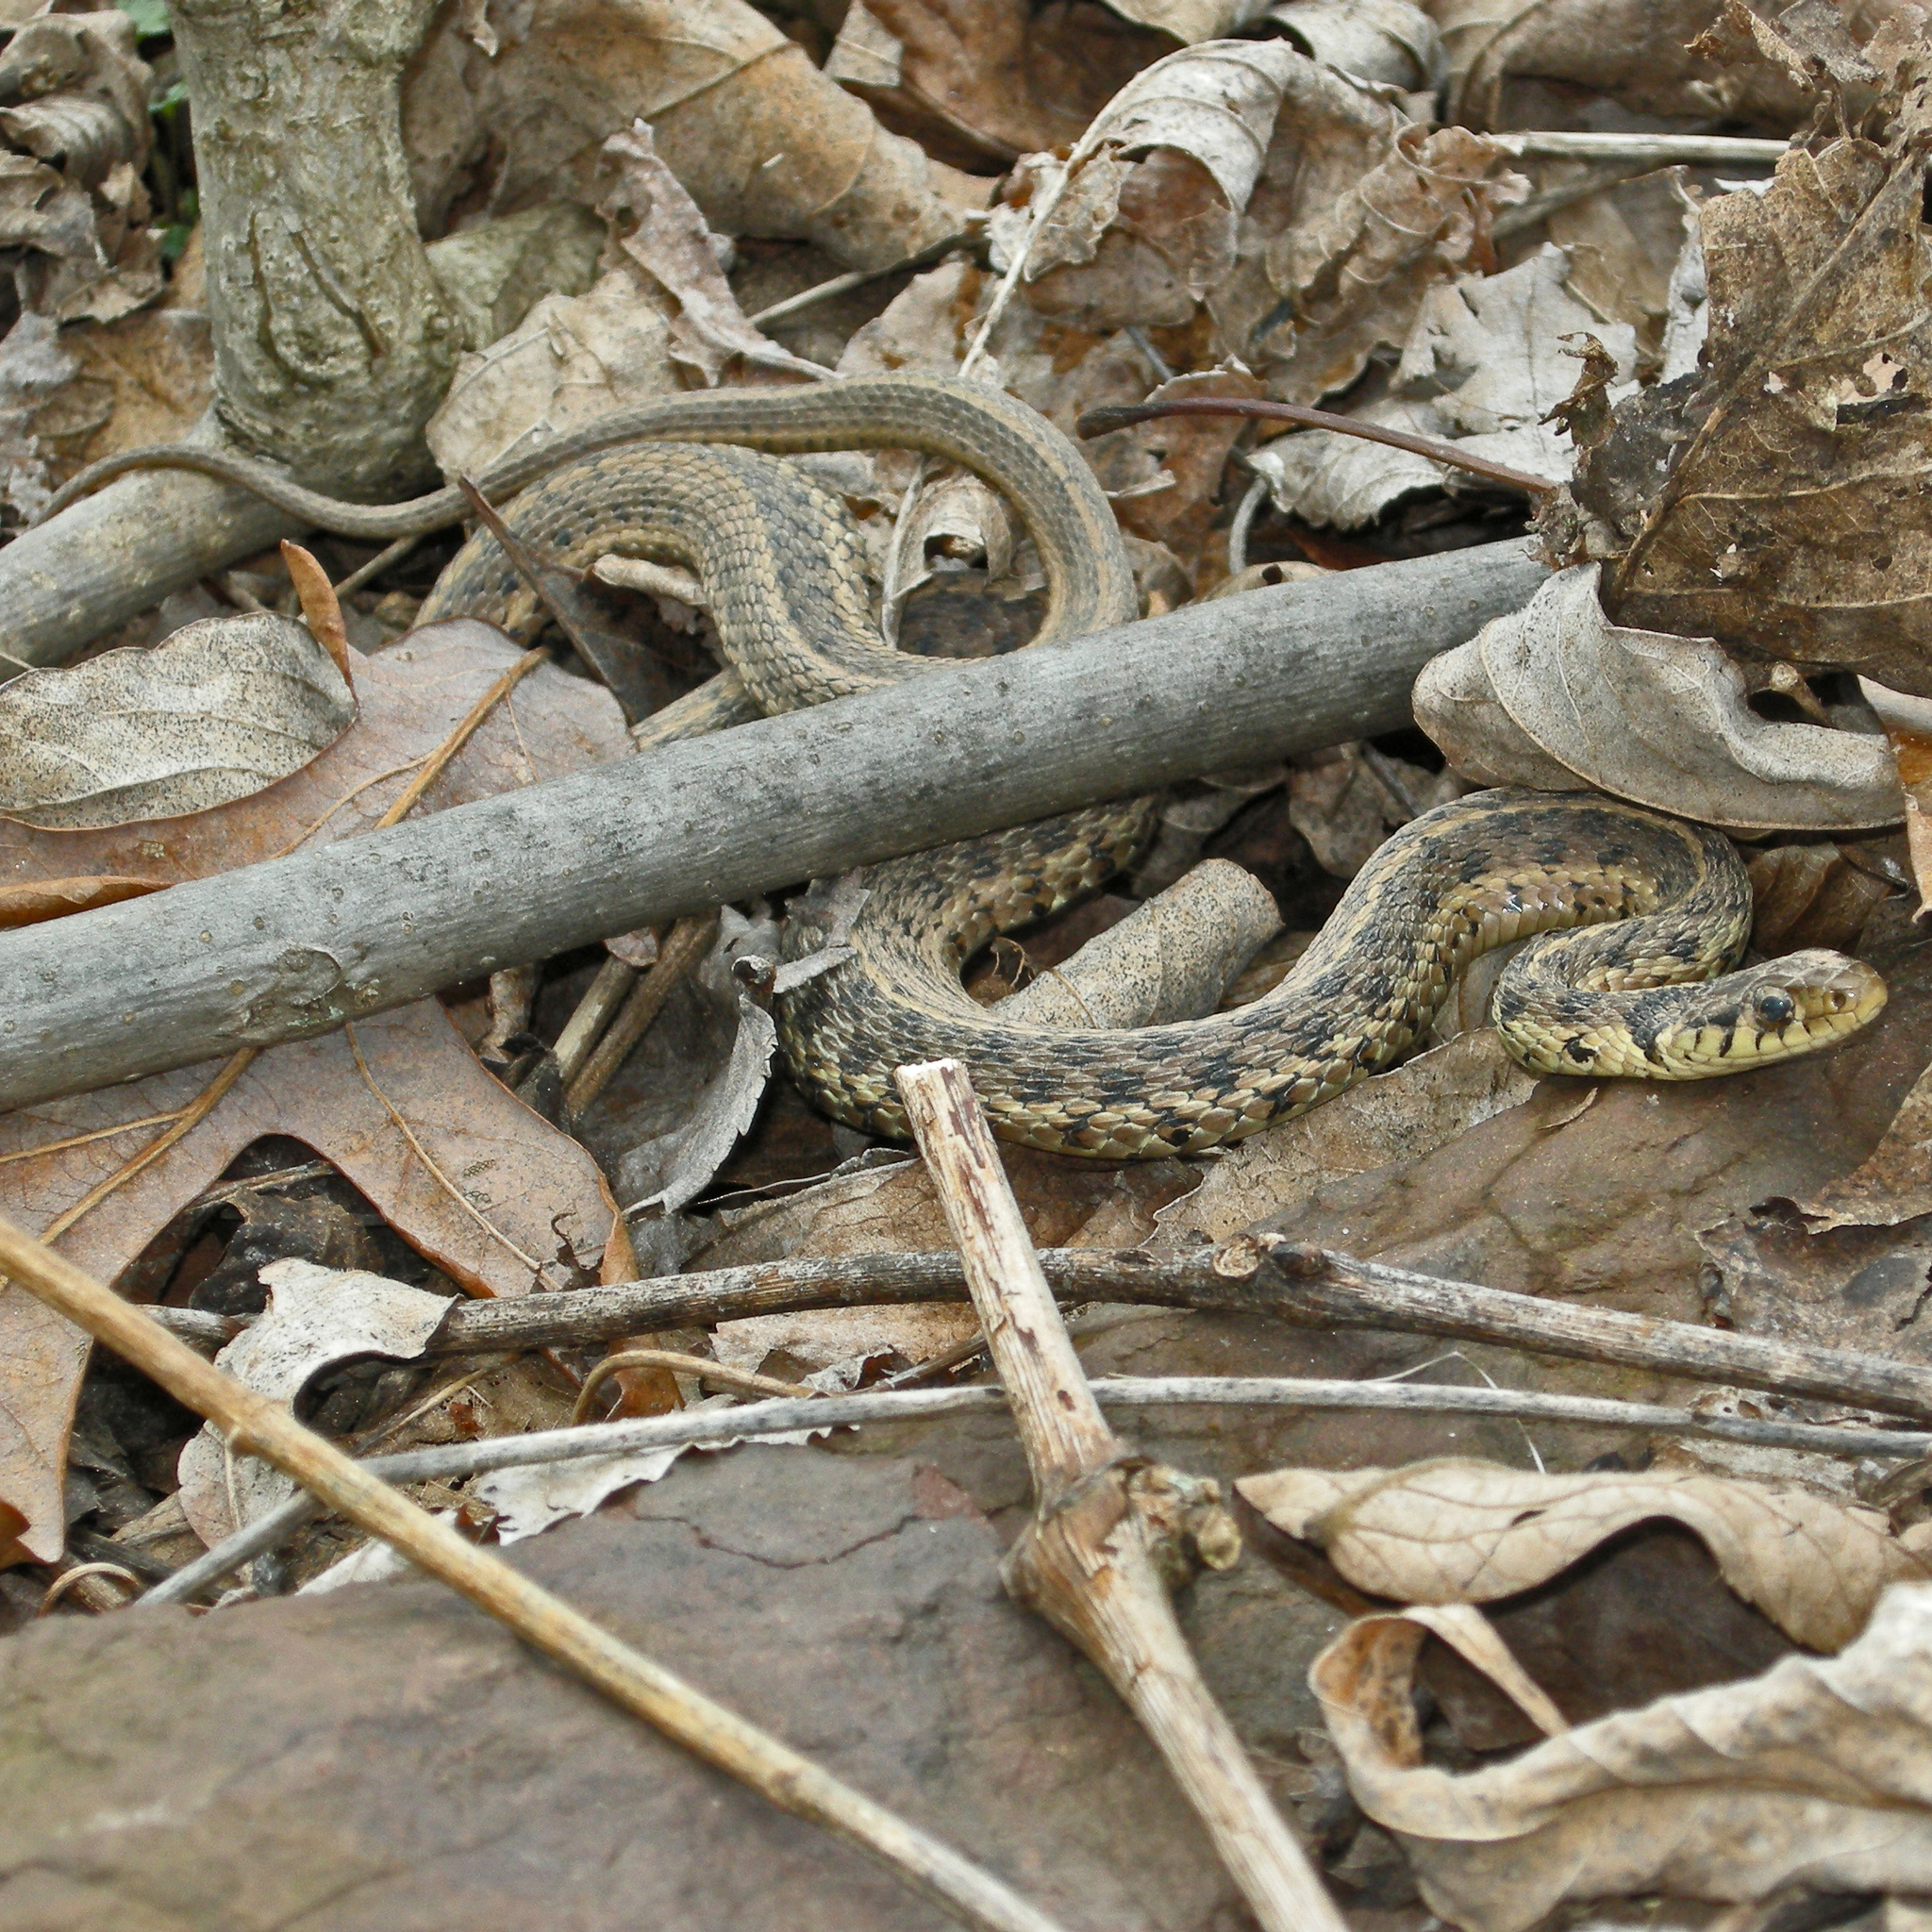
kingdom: Animalia
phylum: Chordata
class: Squamata
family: Colubridae
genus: Thamnophis
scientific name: Thamnophis sirtalis
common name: Common garter snake
